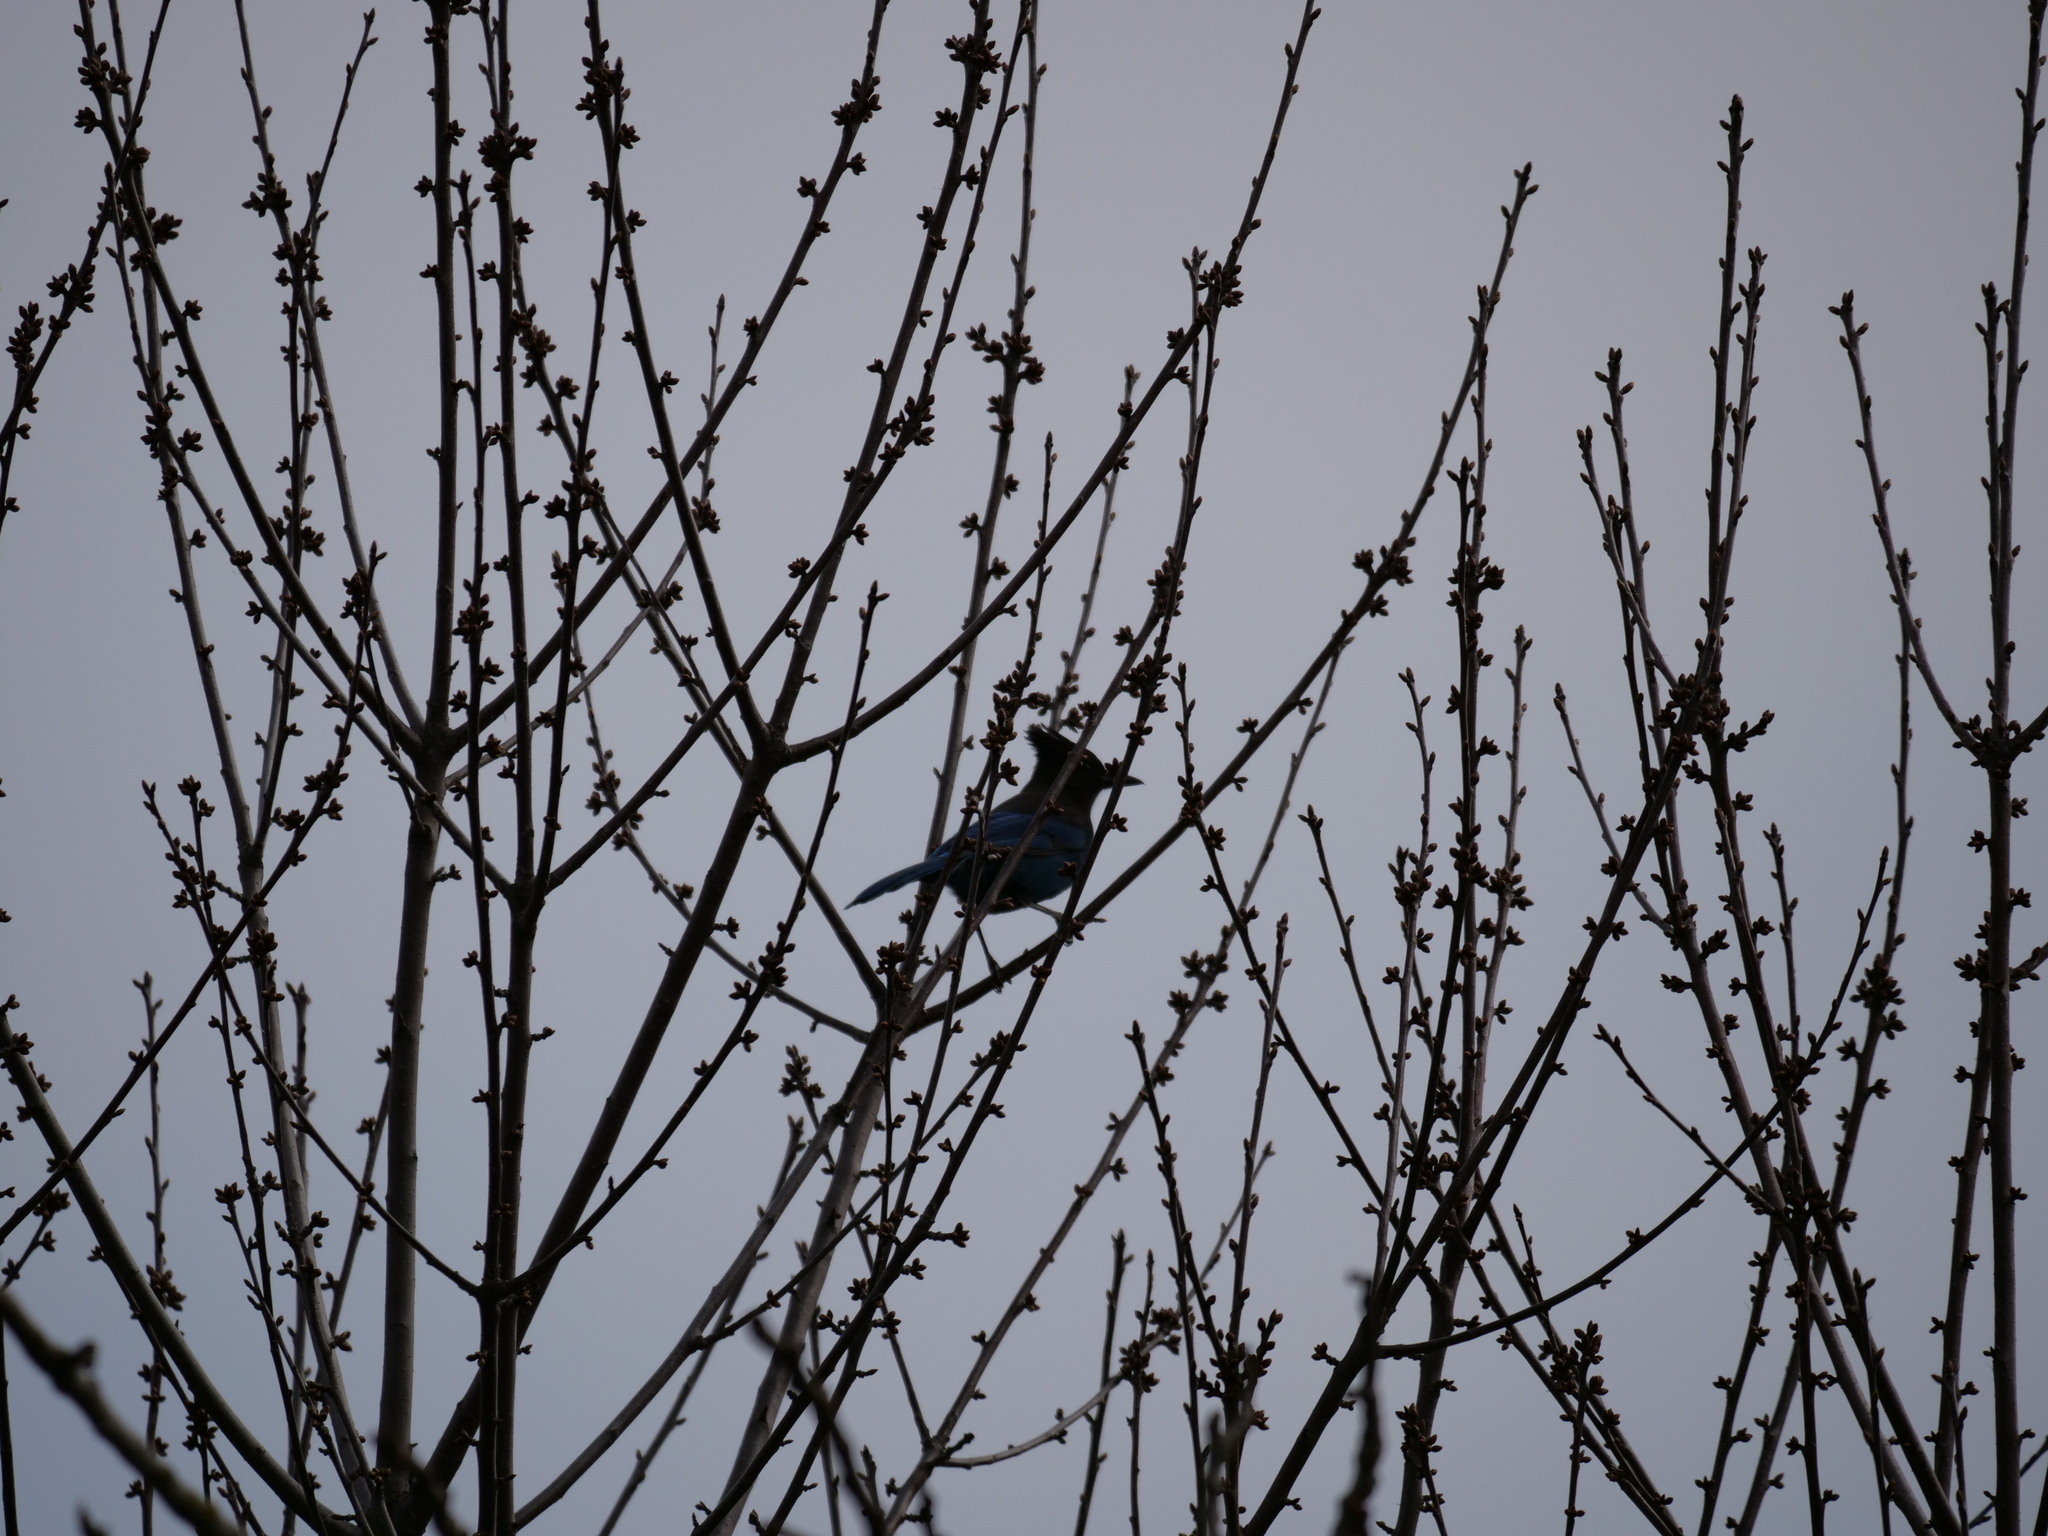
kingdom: Animalia
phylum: Chordata
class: Aves
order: Passeriformes
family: Corvidae
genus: Cyanocitta
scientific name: Cyanocitta stelleri
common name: Steller's jay
